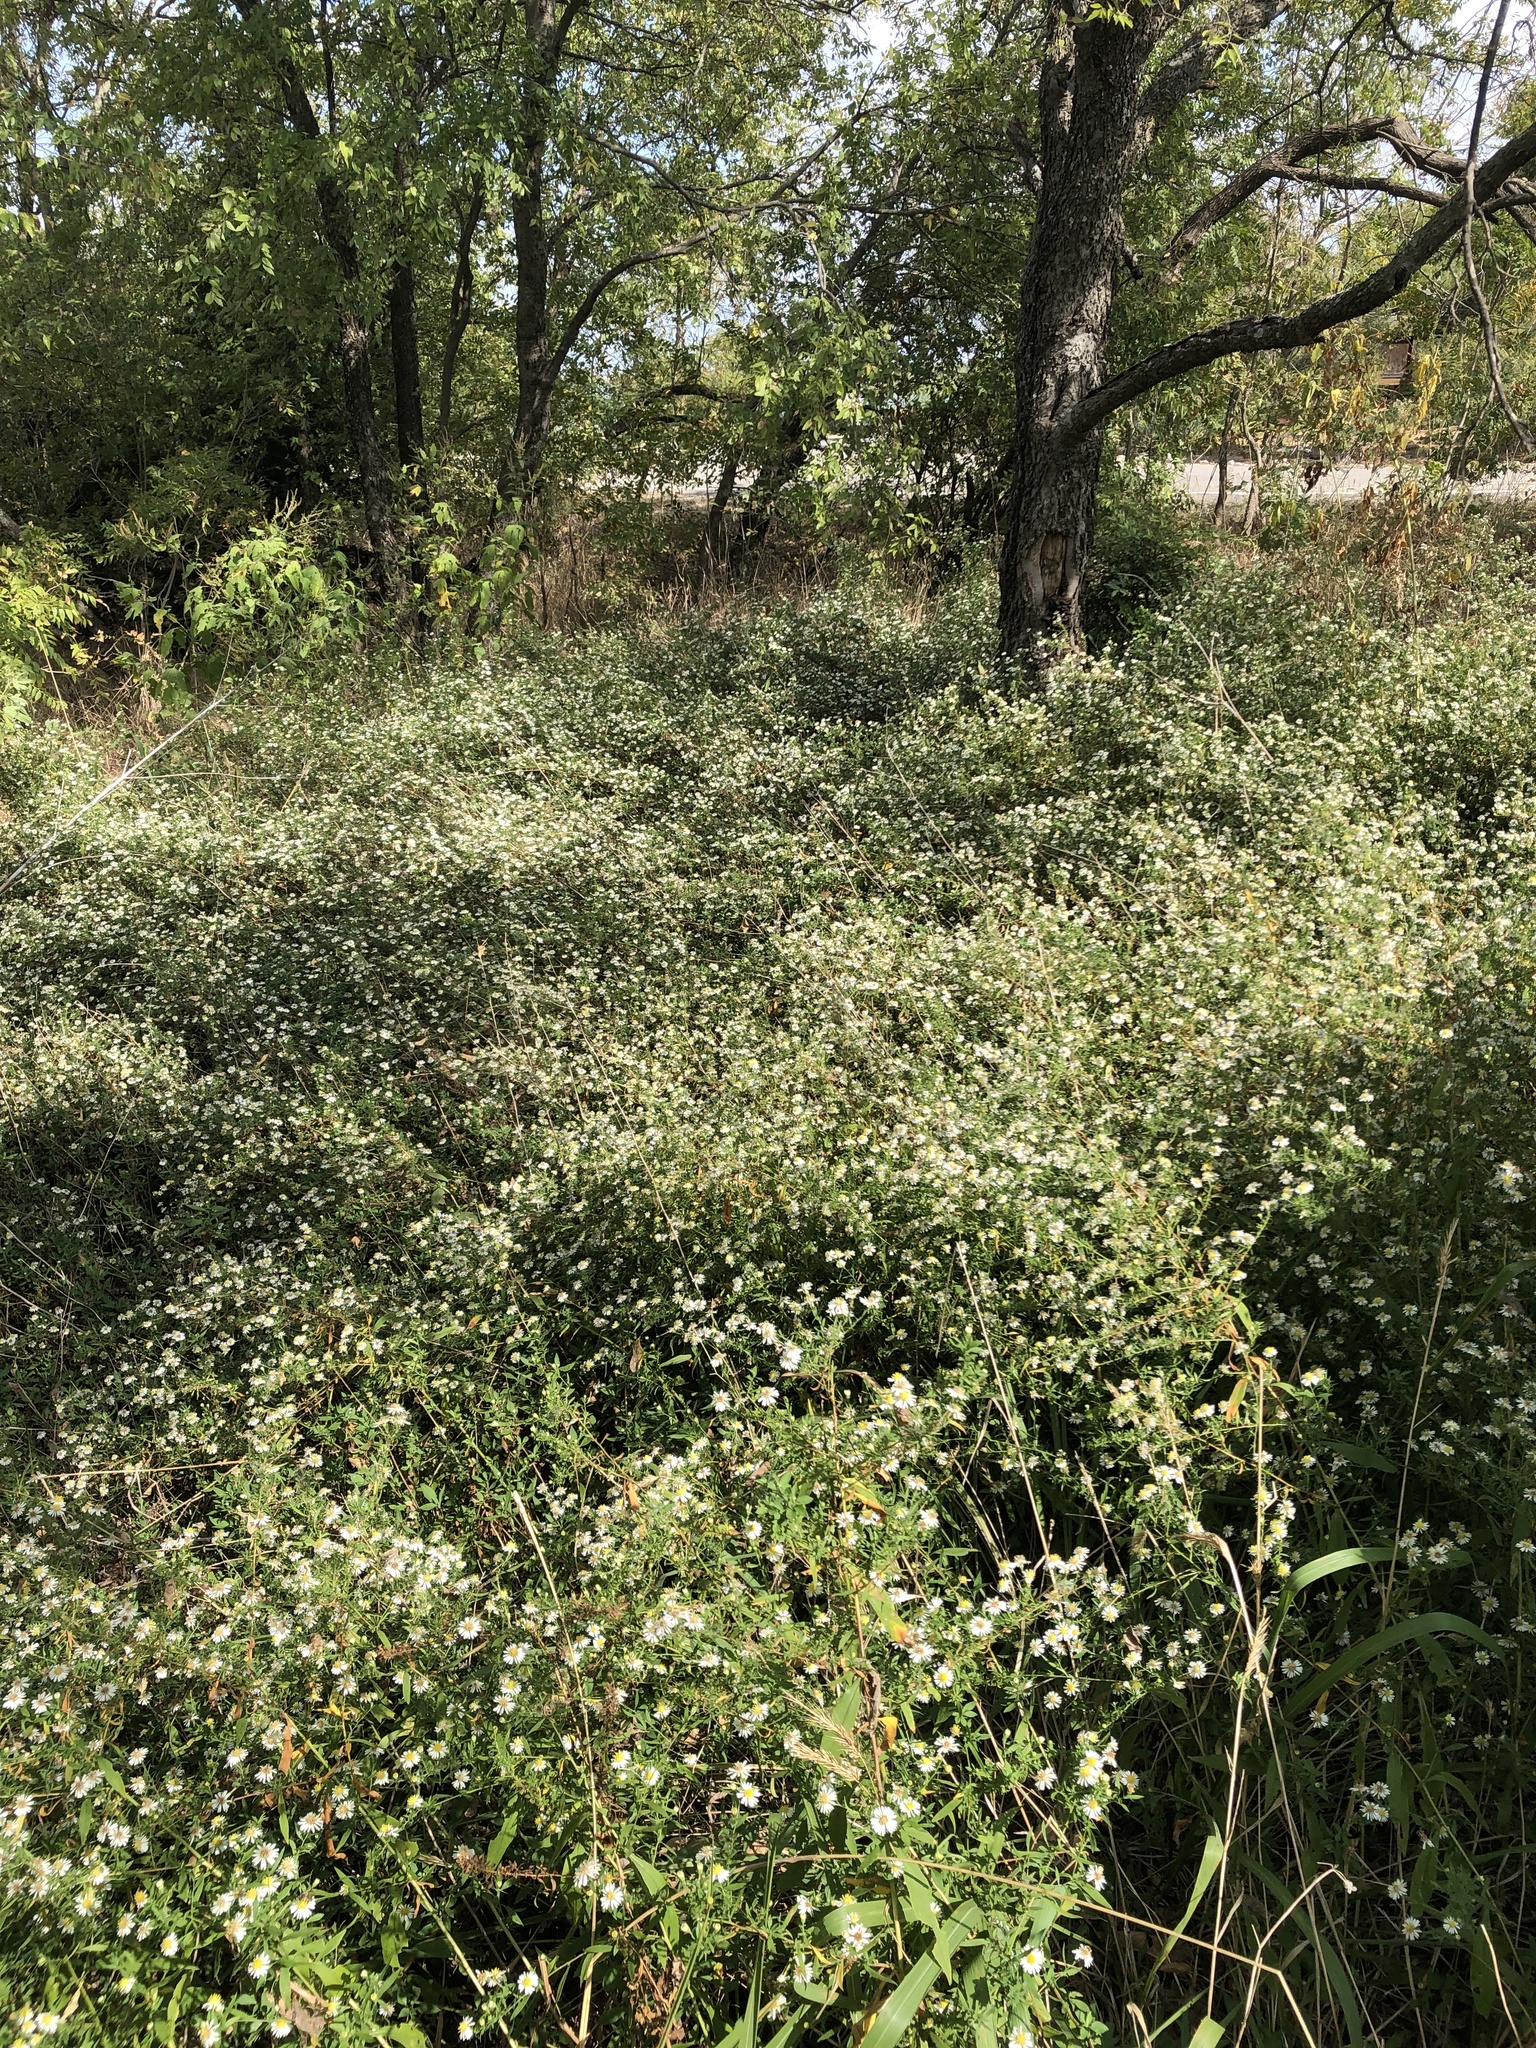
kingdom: Plantae
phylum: Tracheophyta
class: Magnoliopsida
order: Asterales
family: Asteraceae
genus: Symphyotrichum
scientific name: Symphyotrichum lanceolatum
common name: Panicled aster
